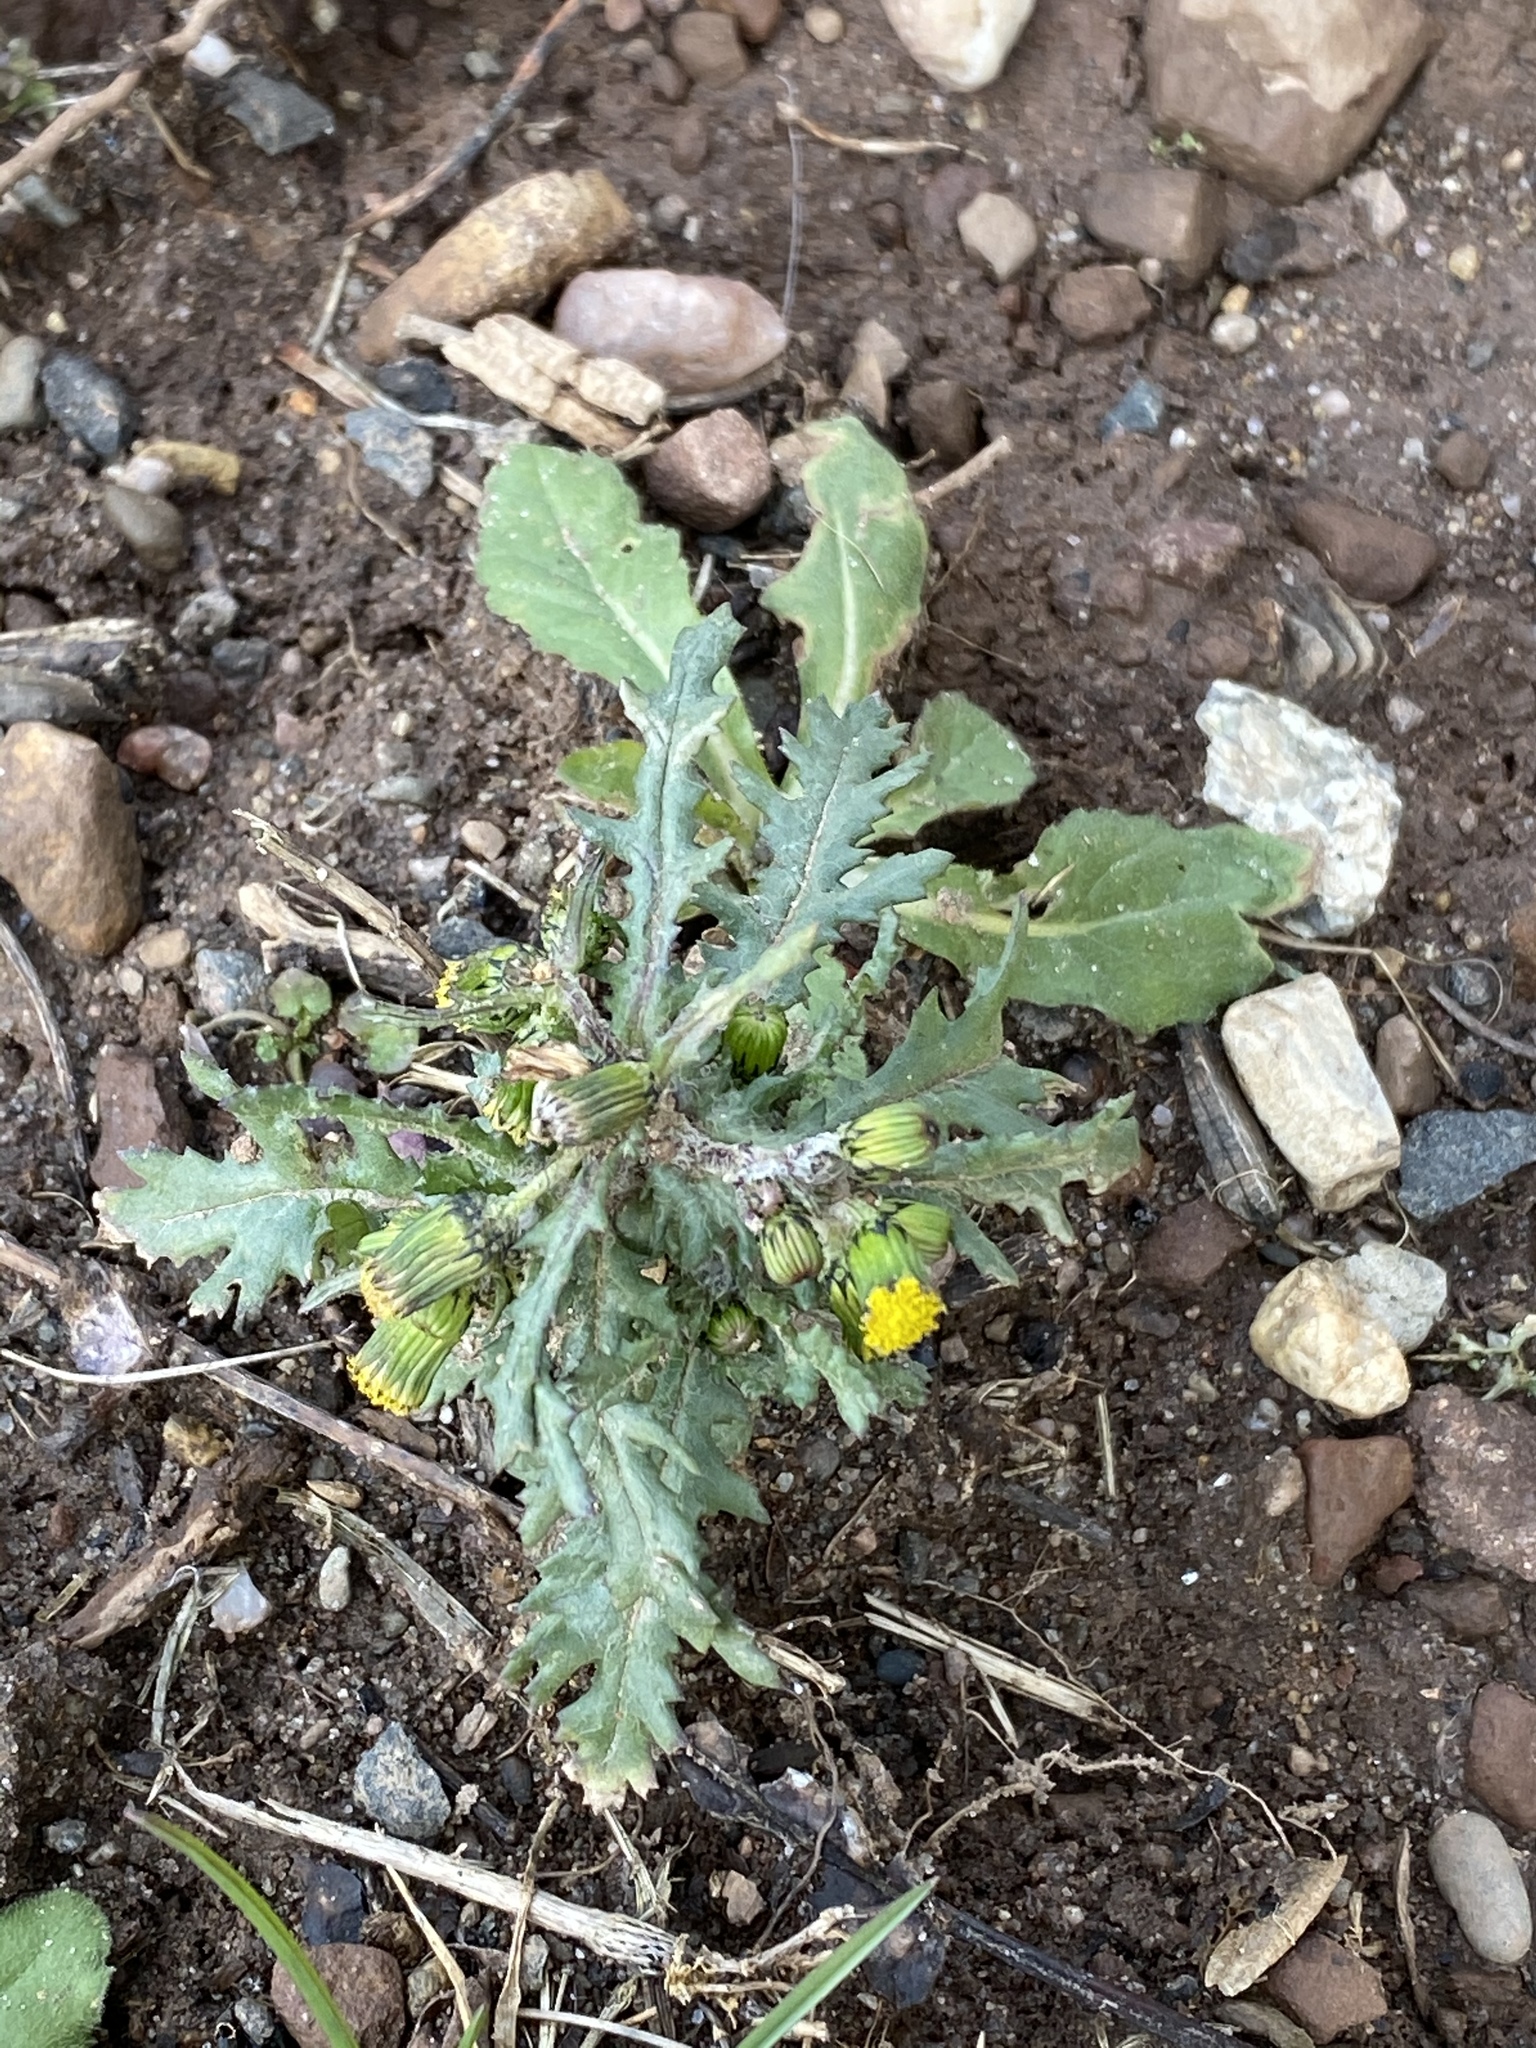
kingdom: Plantae
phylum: Tracheophyta
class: Magnoliopsida
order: Asterales
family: Asteraceae
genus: Senecio
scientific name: Senecio vulgaris
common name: Old-man-in-the-spring
